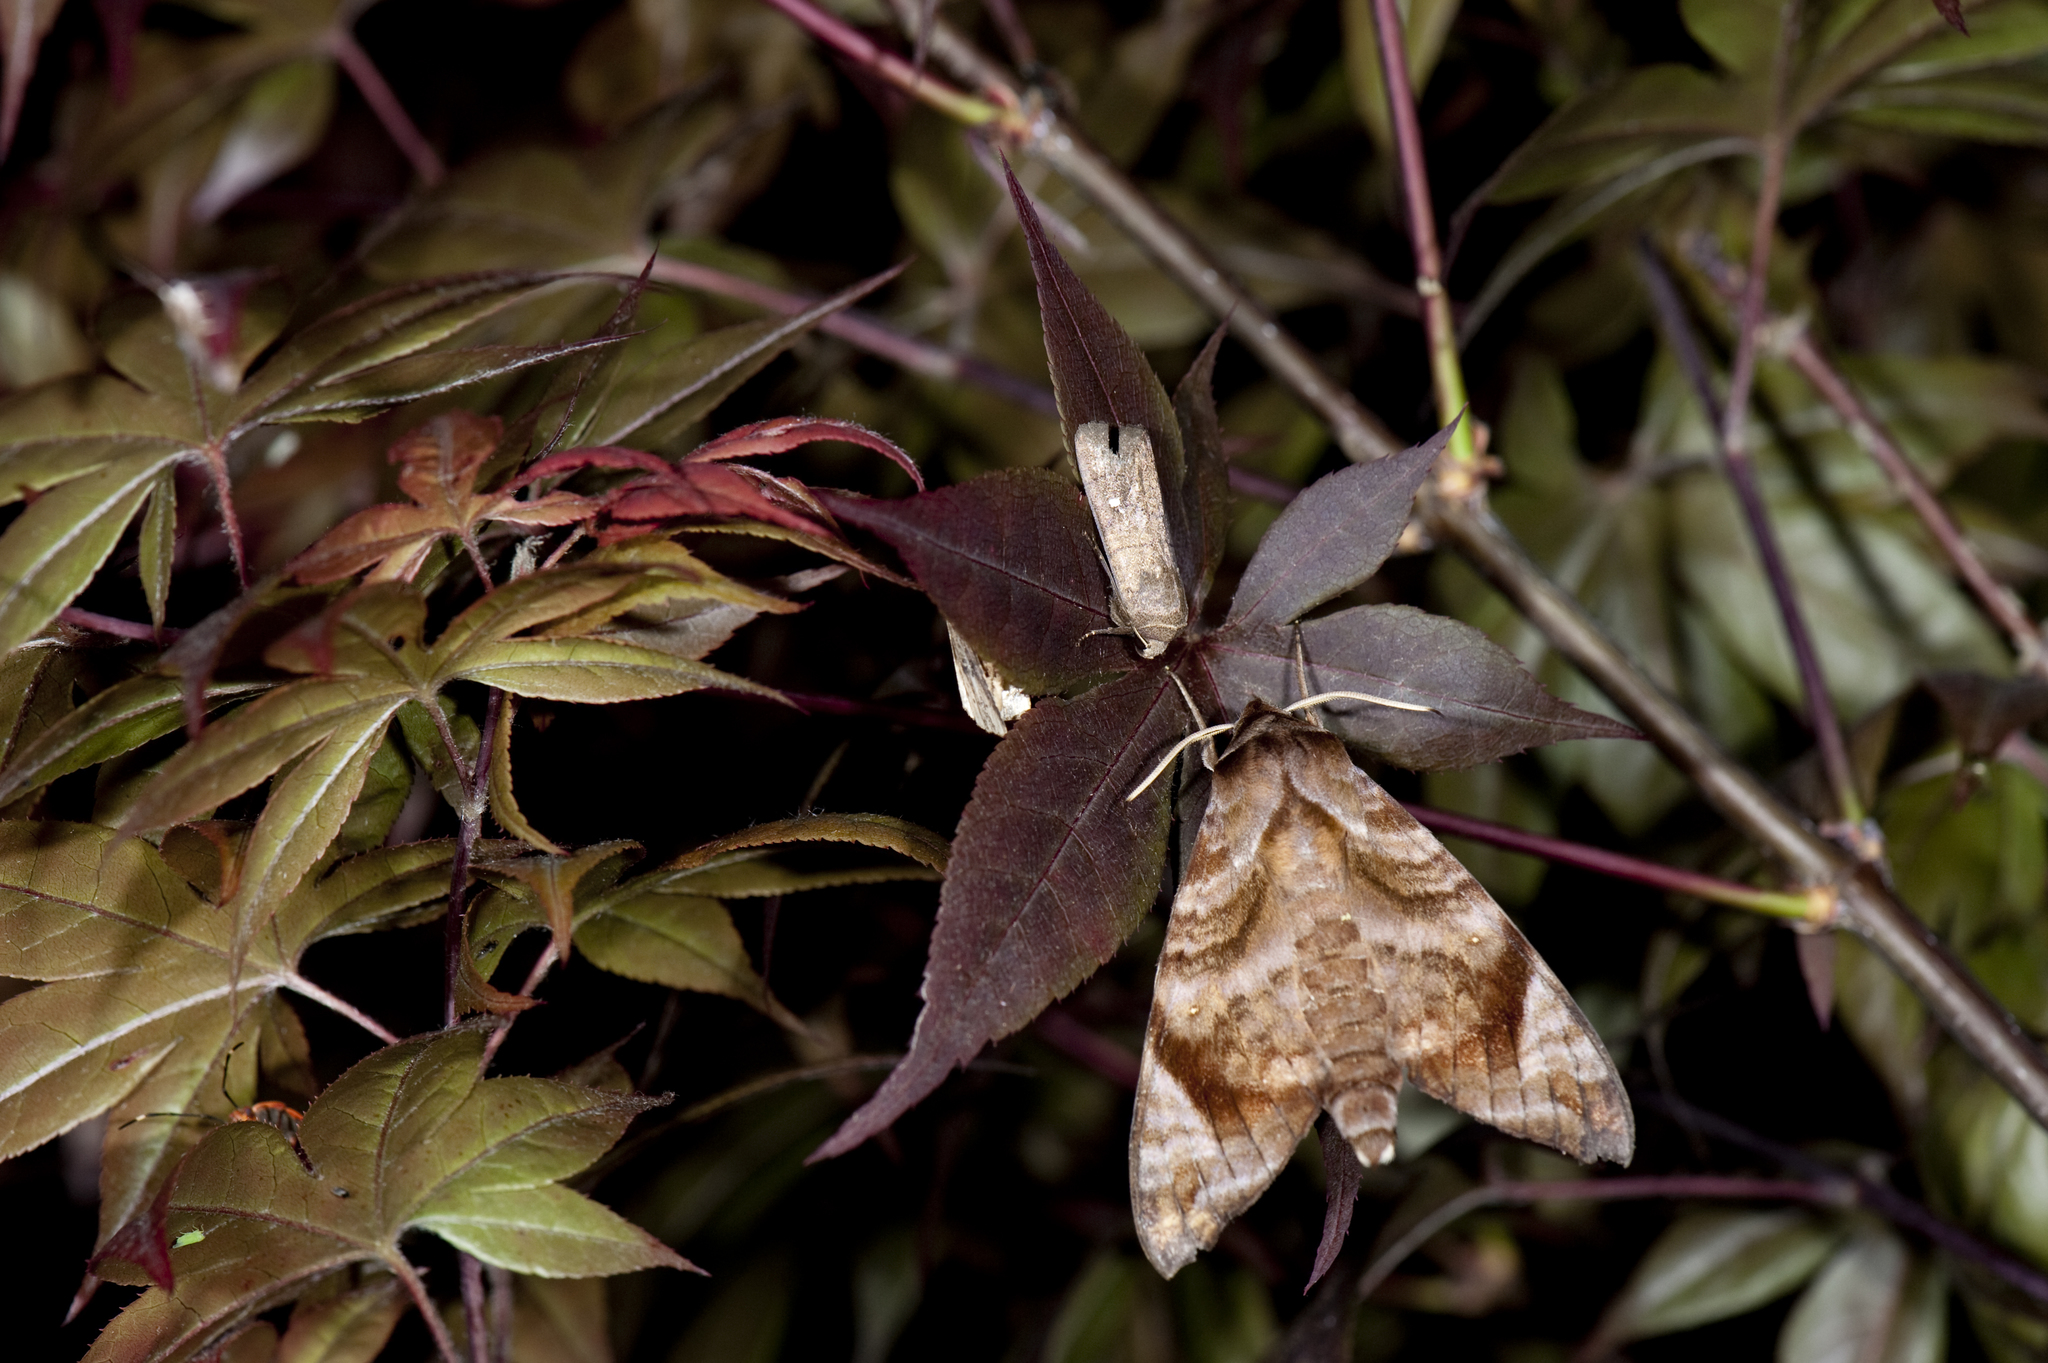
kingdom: Animalia
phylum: Arthropoda
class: Insecta
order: Lepidoptera
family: Sphingidae
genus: Acosmeryx
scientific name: Acosmeryx castanea
